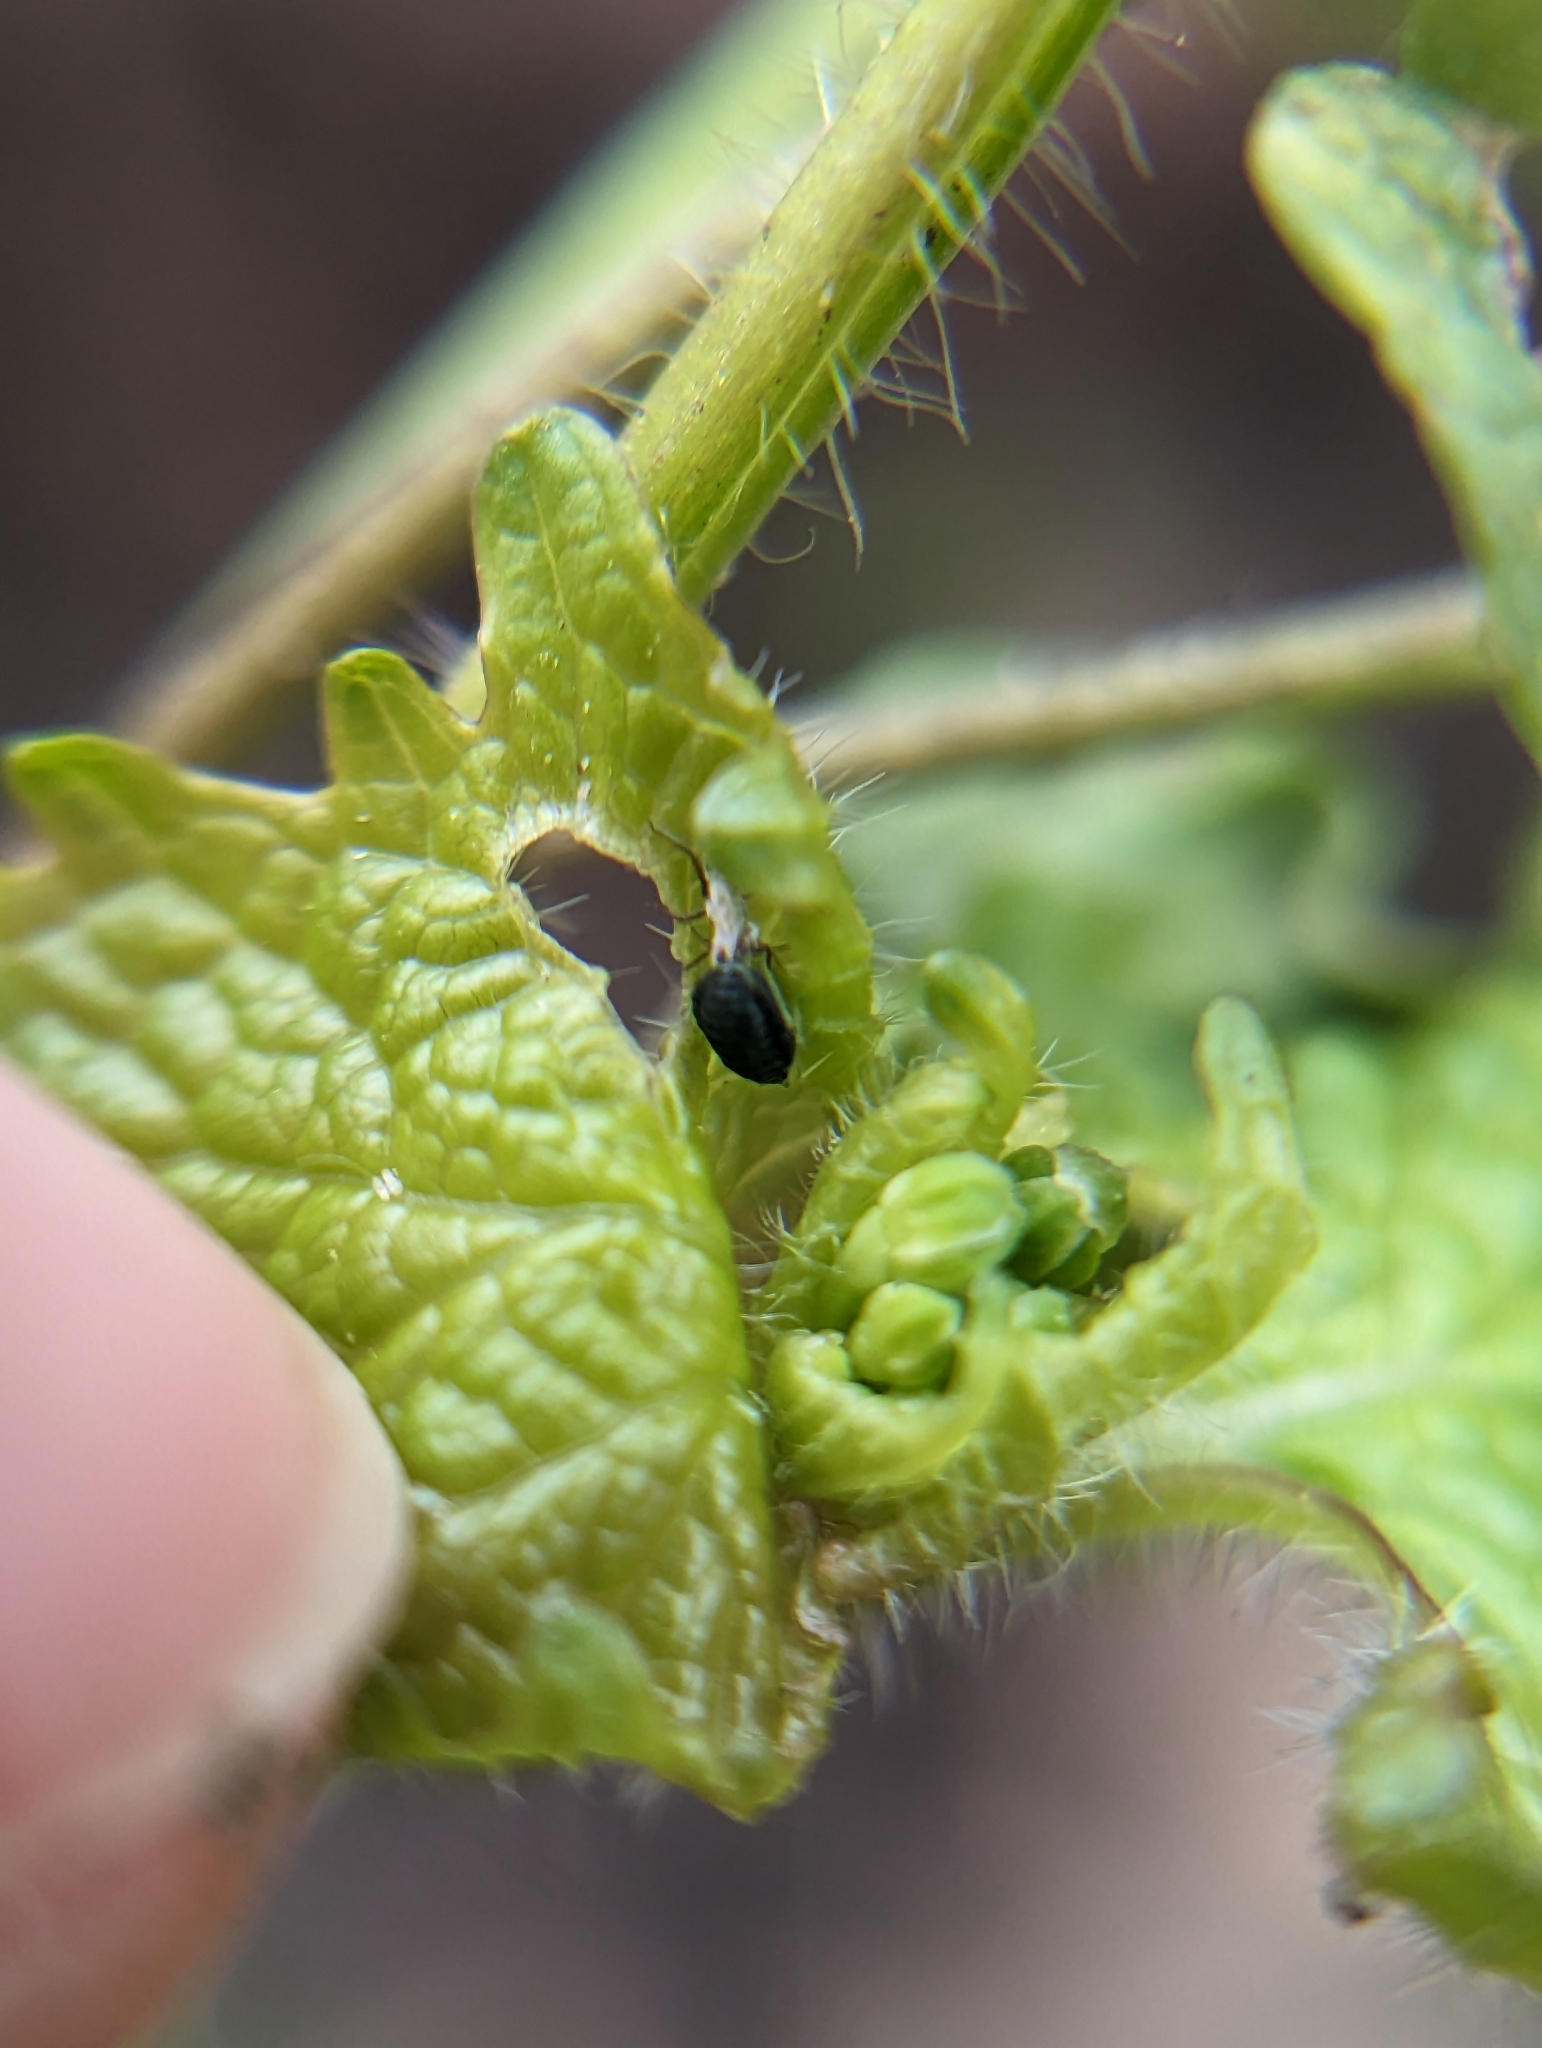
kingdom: Animalia
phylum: Arthropoda
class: Insecta
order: Hemiptera
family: Aphididae
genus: Lipaphis
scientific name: Lipaphis alliariae
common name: Granade aphid
